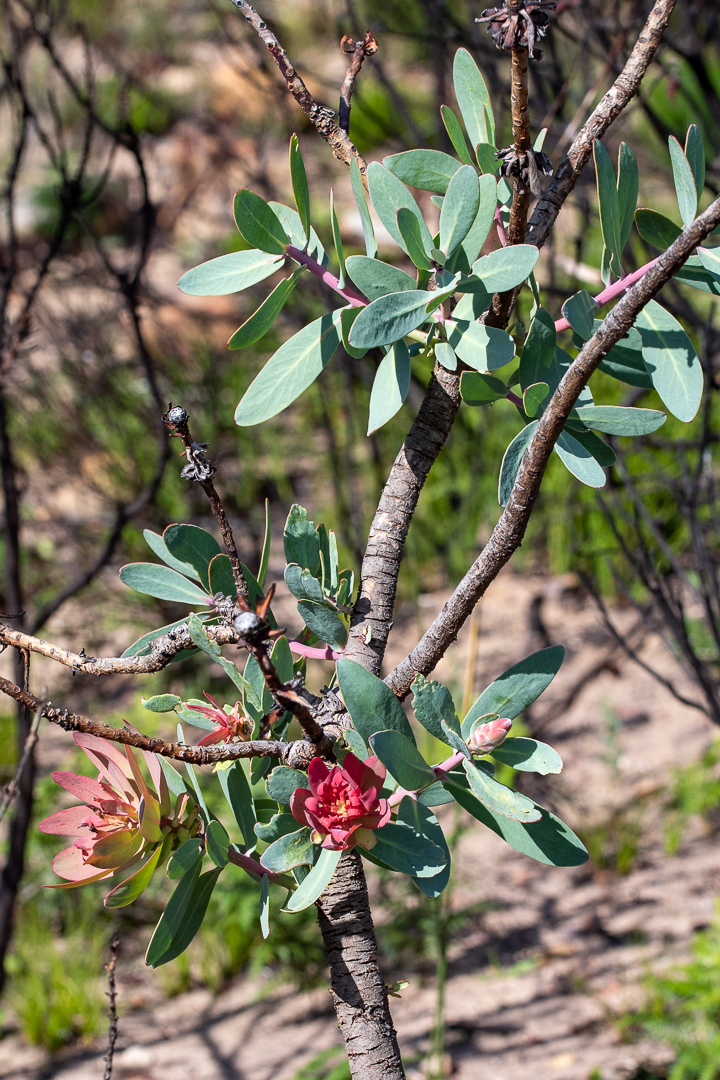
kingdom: Plantae
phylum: Tracheophyta
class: Magnoliopsida
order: Proteales
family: Proteaceae
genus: Protea
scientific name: Protea nitida
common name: Tree protea
